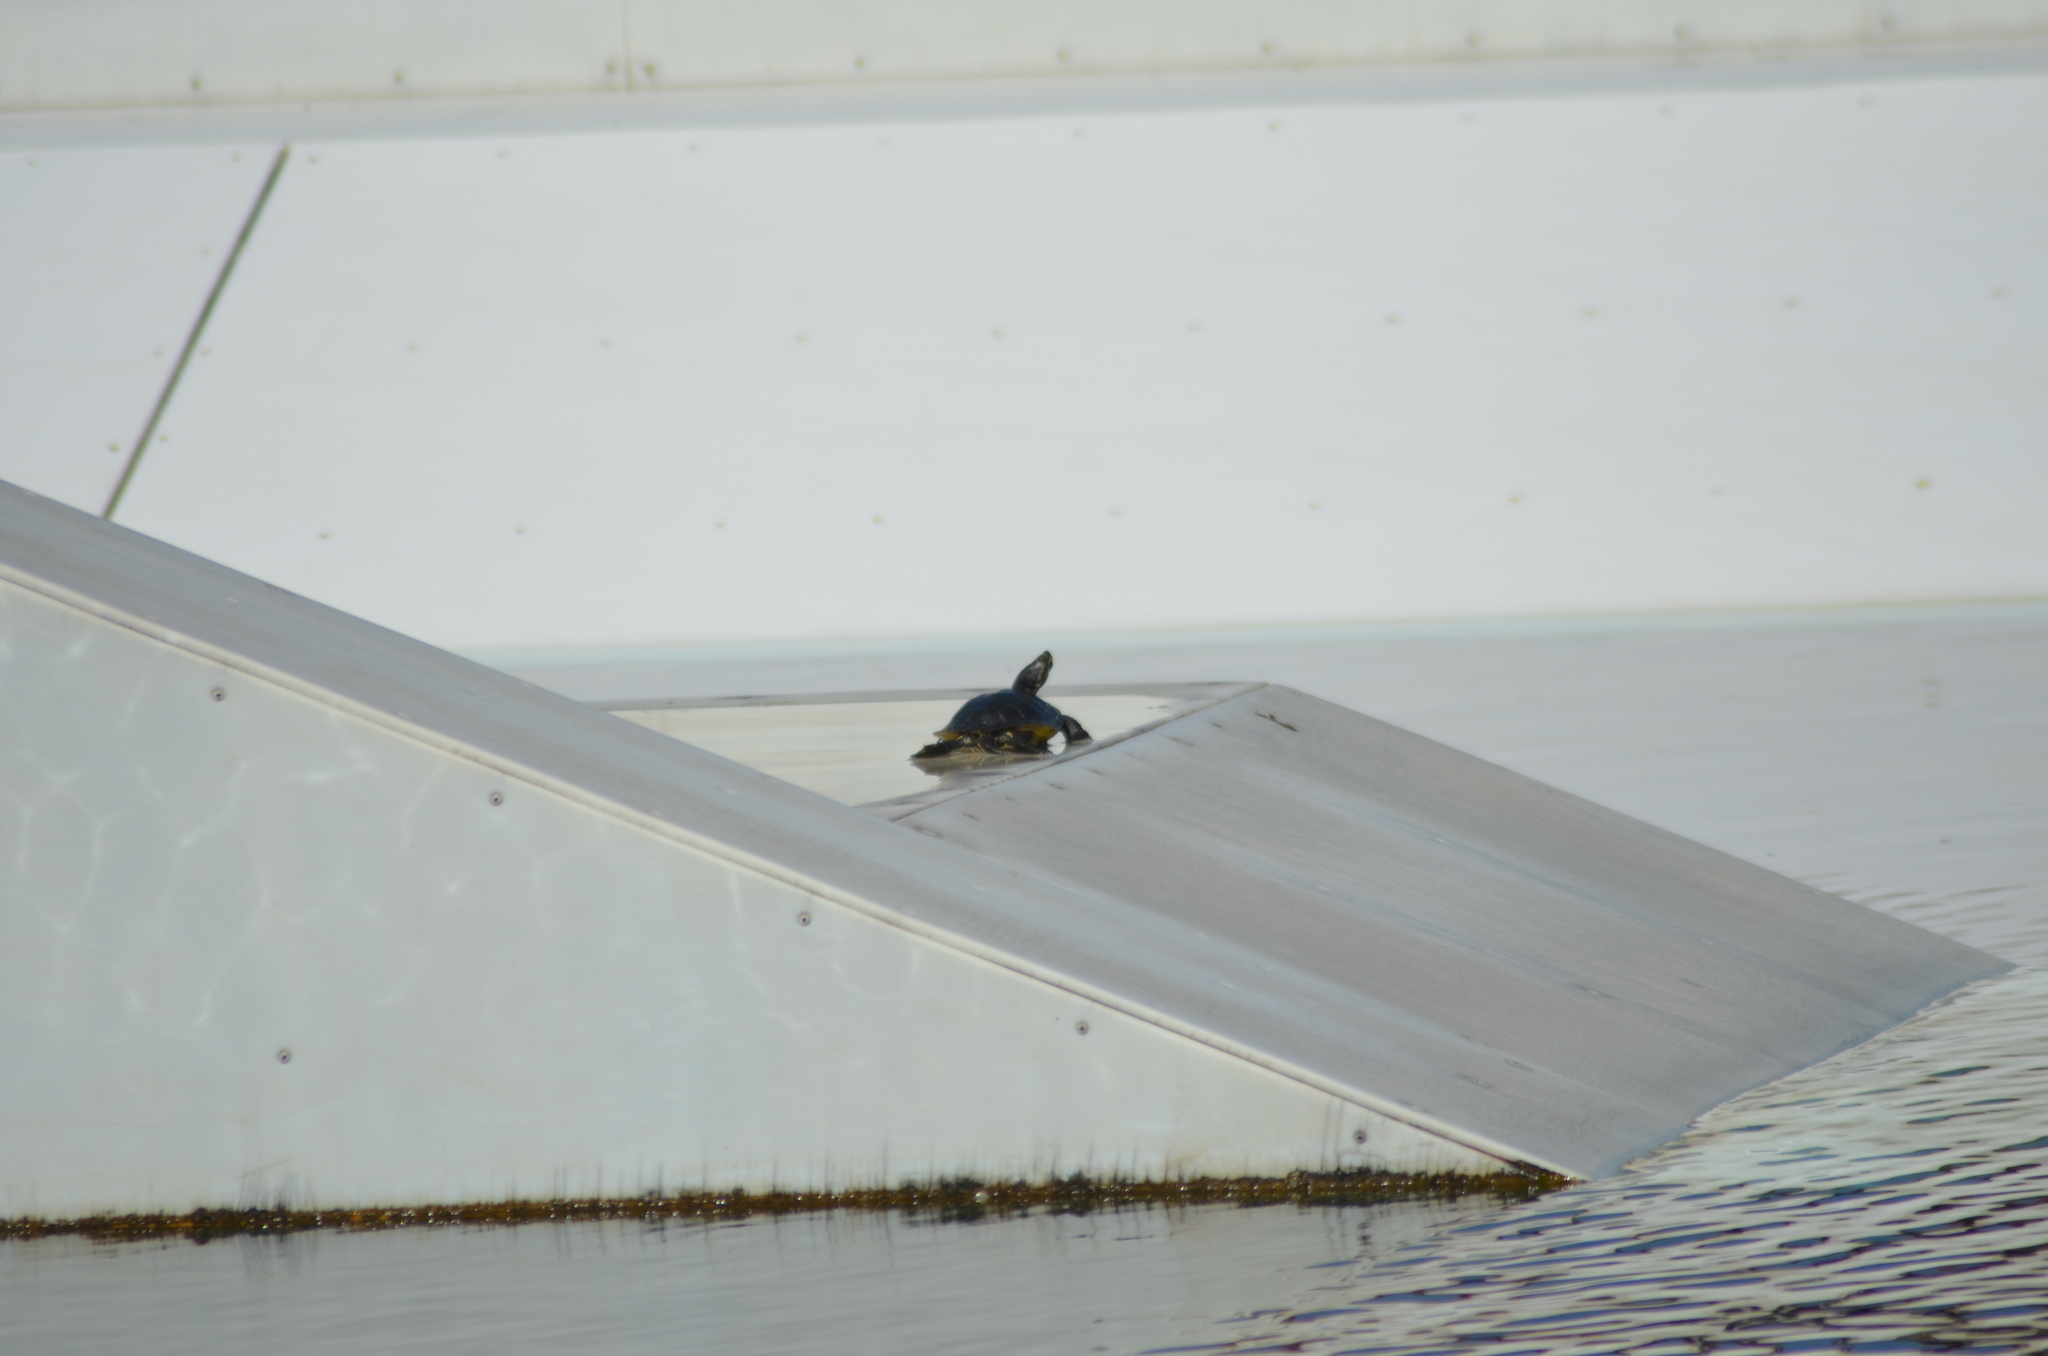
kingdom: Animalia
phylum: Chordata
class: Testudines
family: Emydidae
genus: Trachemys
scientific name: Trachemys scripta
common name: Slider
